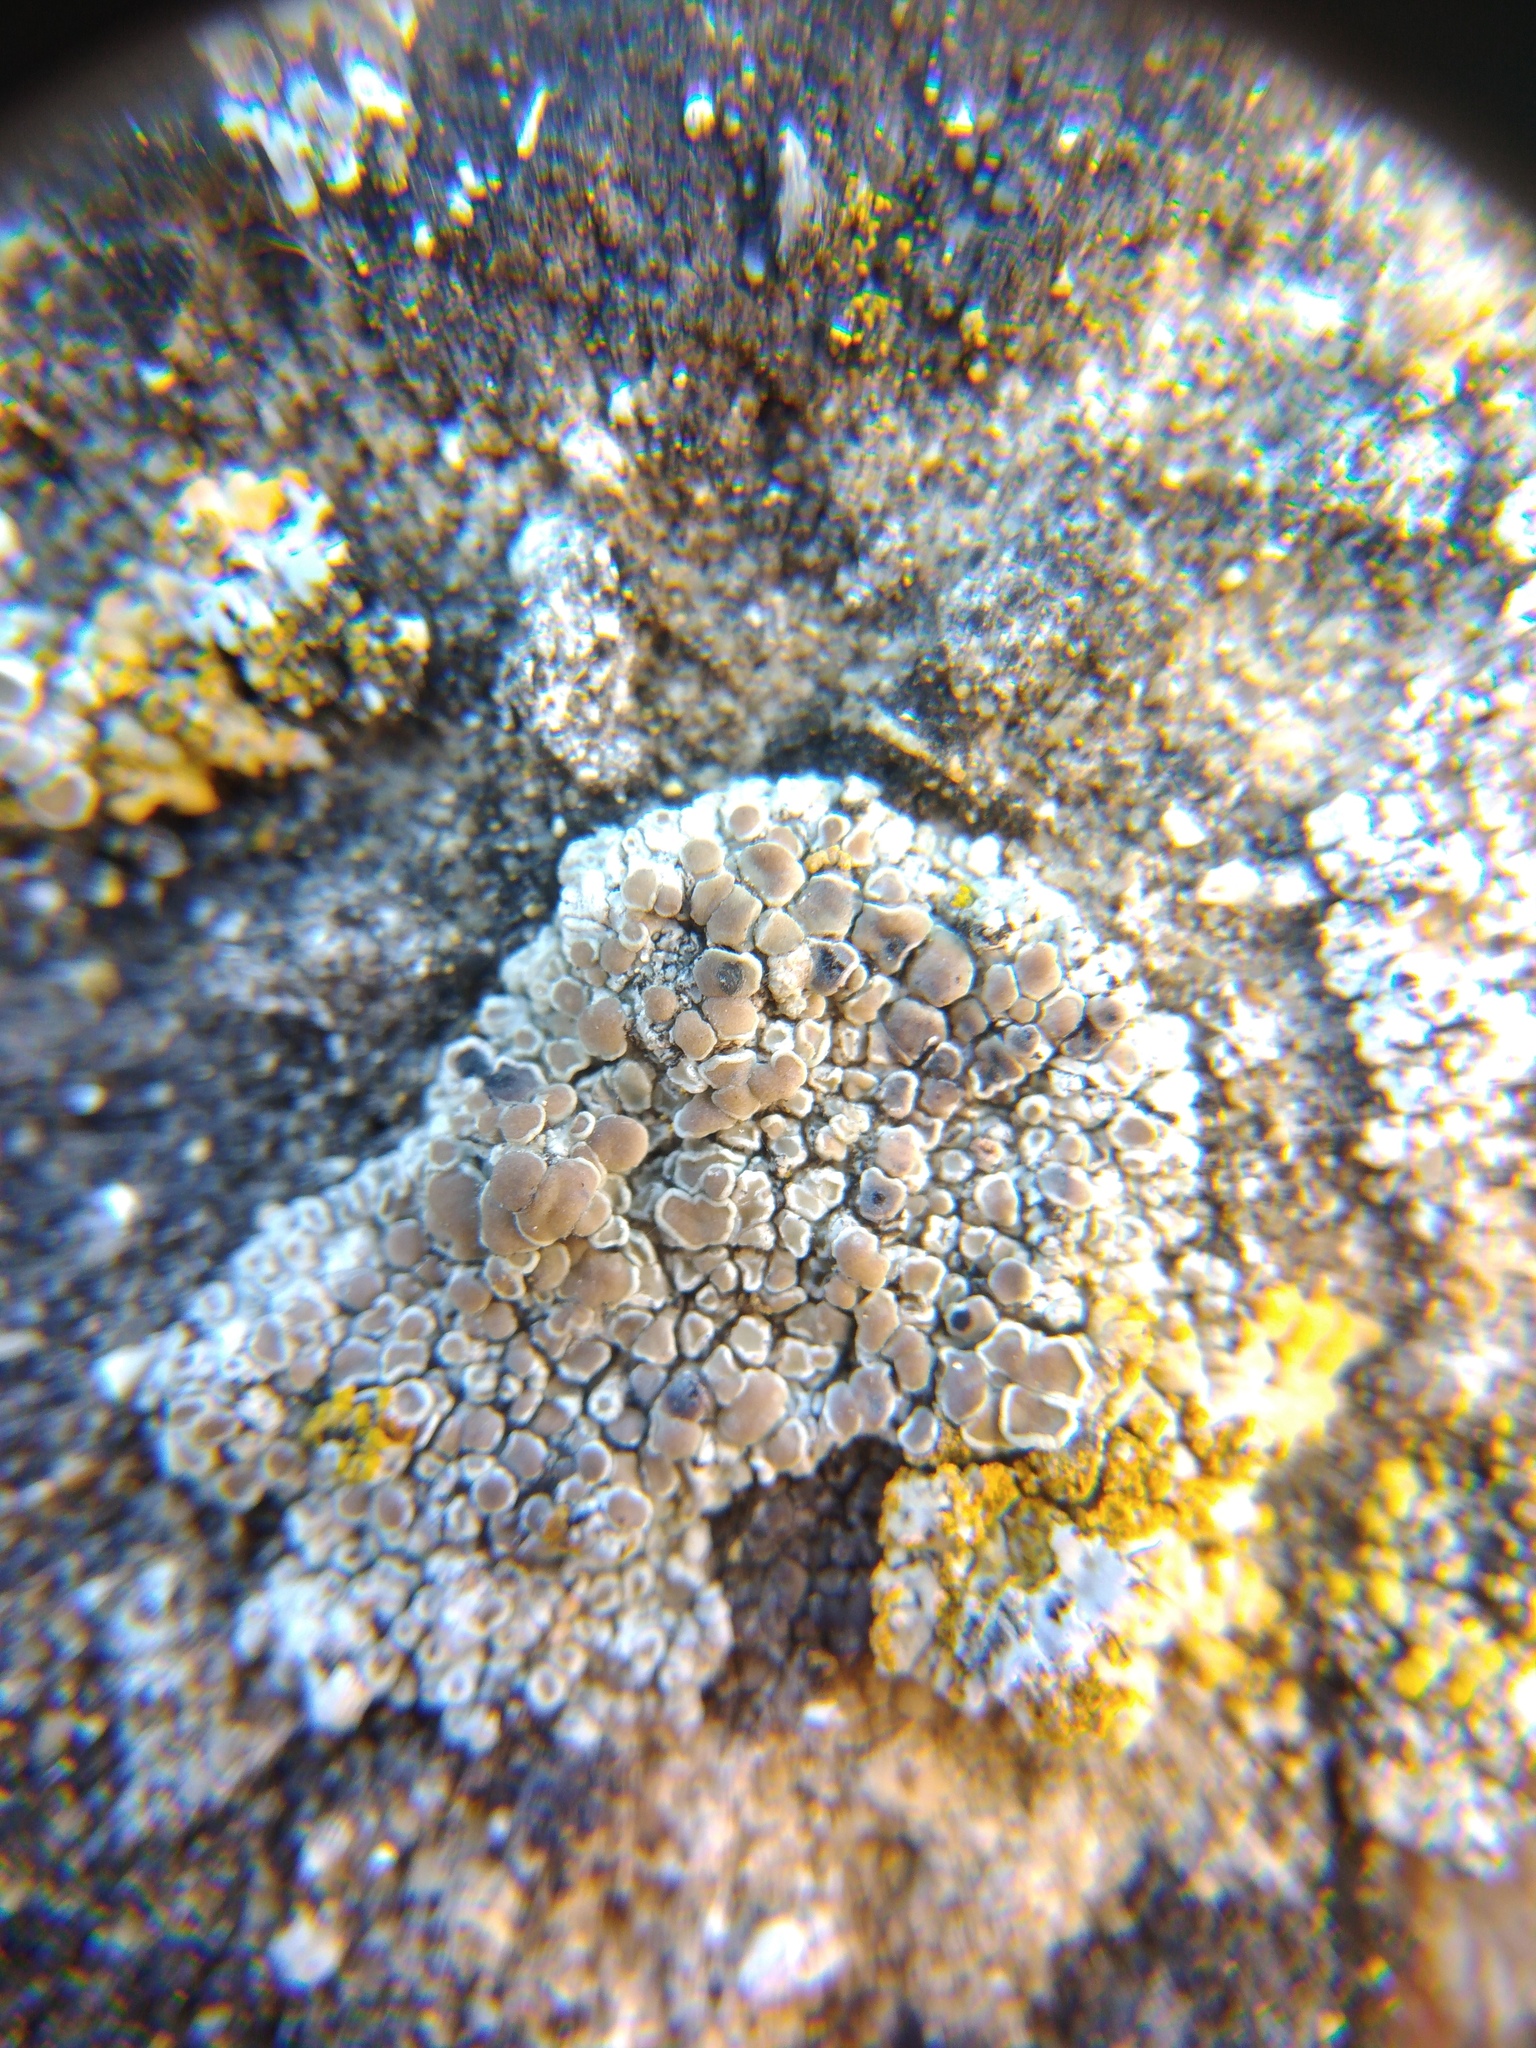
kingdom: Fungi
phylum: Ascomycota
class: Lecanoromycetes
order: Lecanorales
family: Lecanoraceae
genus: Polyozosia
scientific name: Polyozosia albescens
